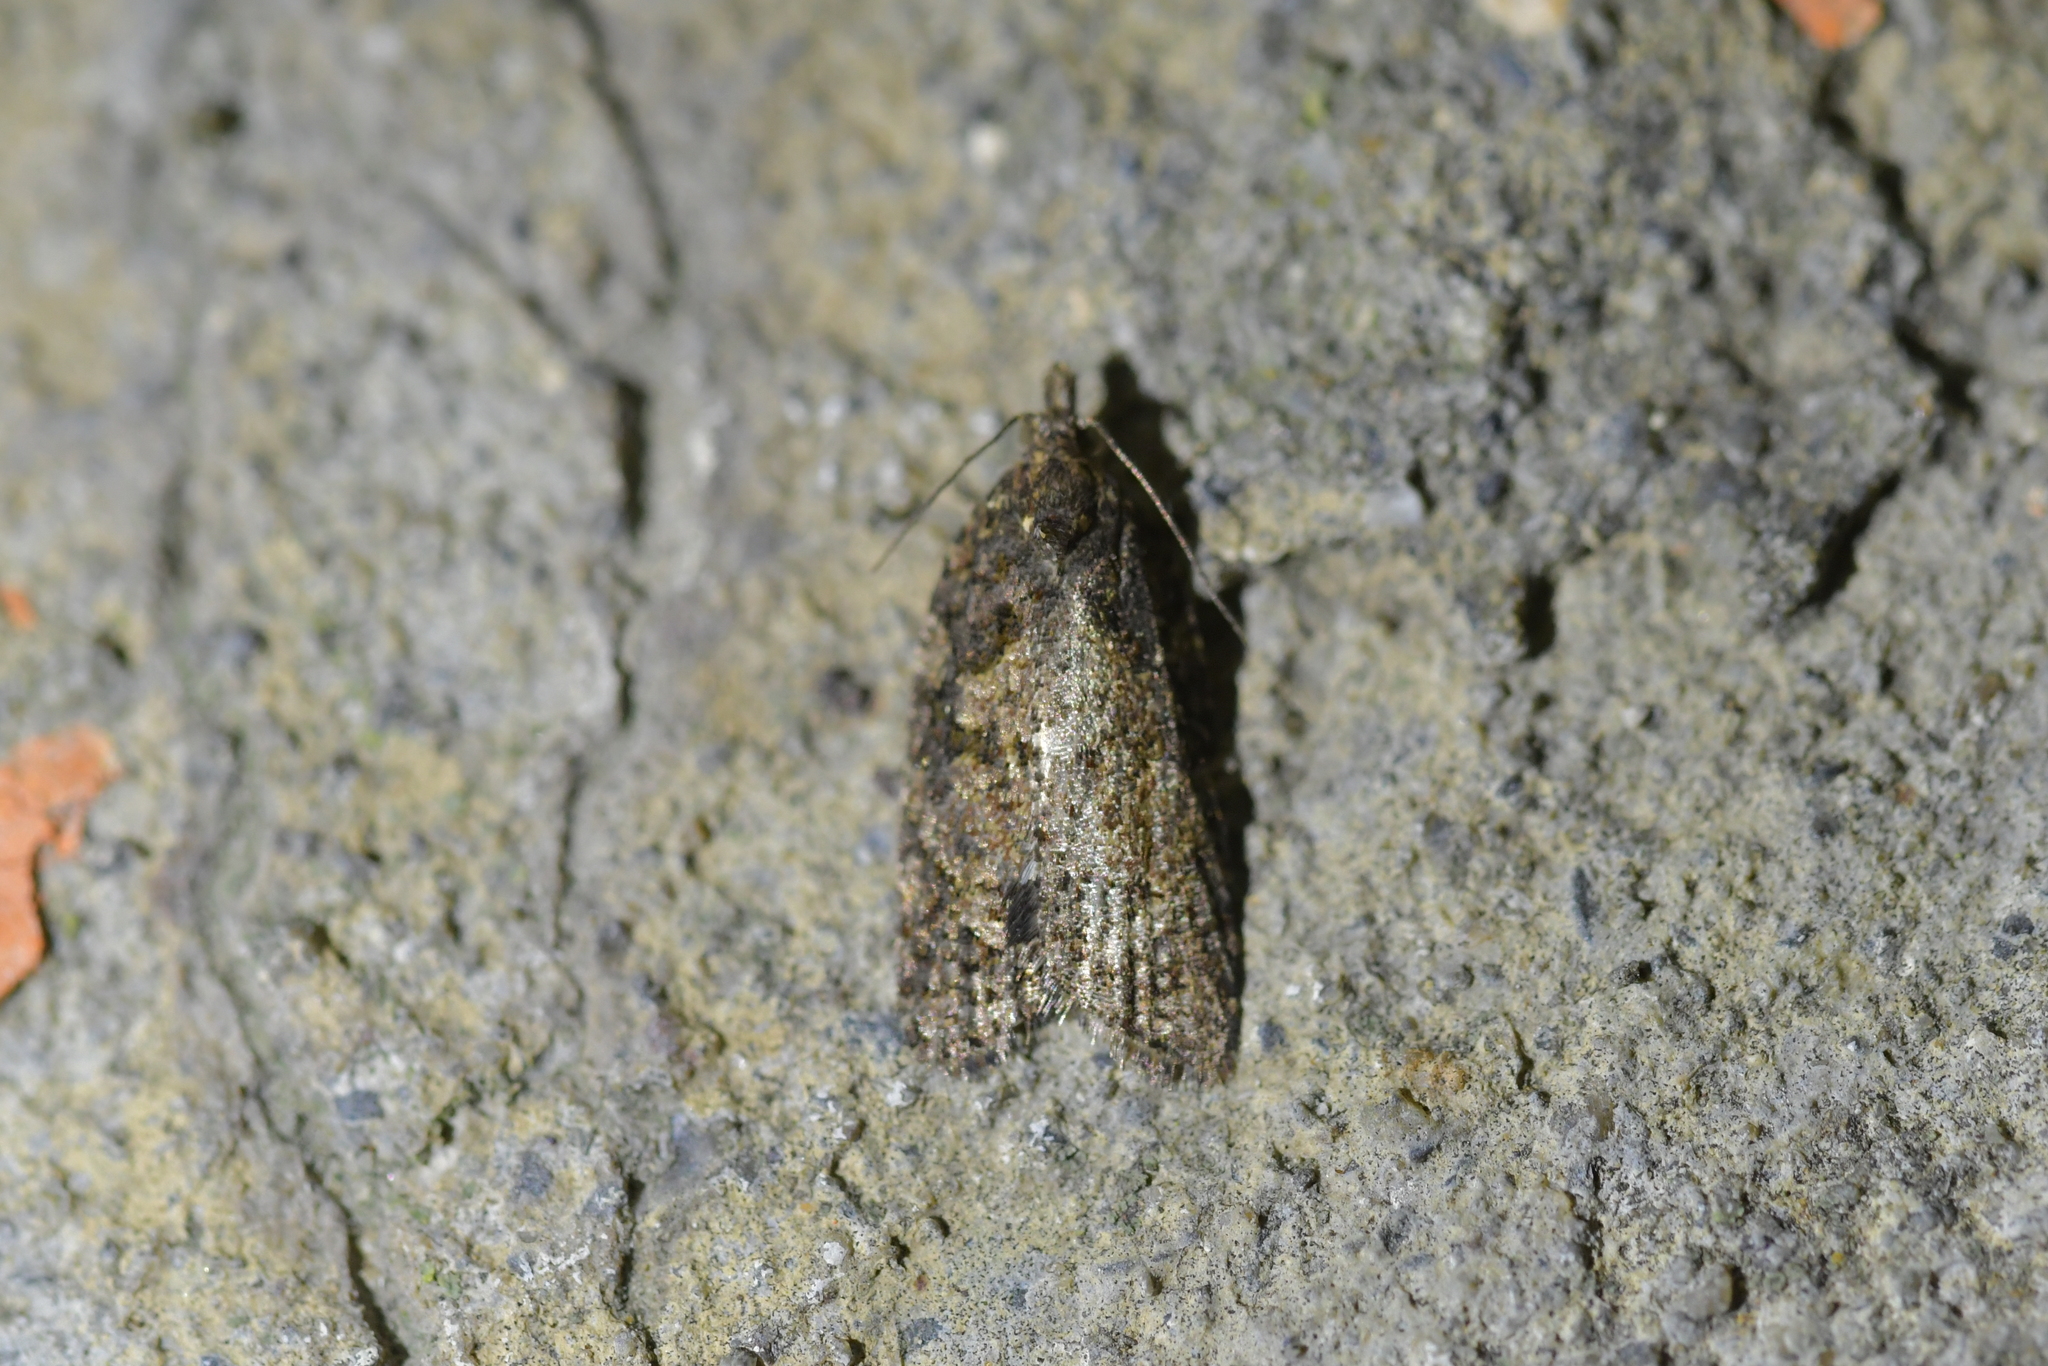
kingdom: Animalia
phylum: Arthropoda
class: Insecta
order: Lepidoptera
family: Tortricidae
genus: Capua
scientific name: Capua intractana
